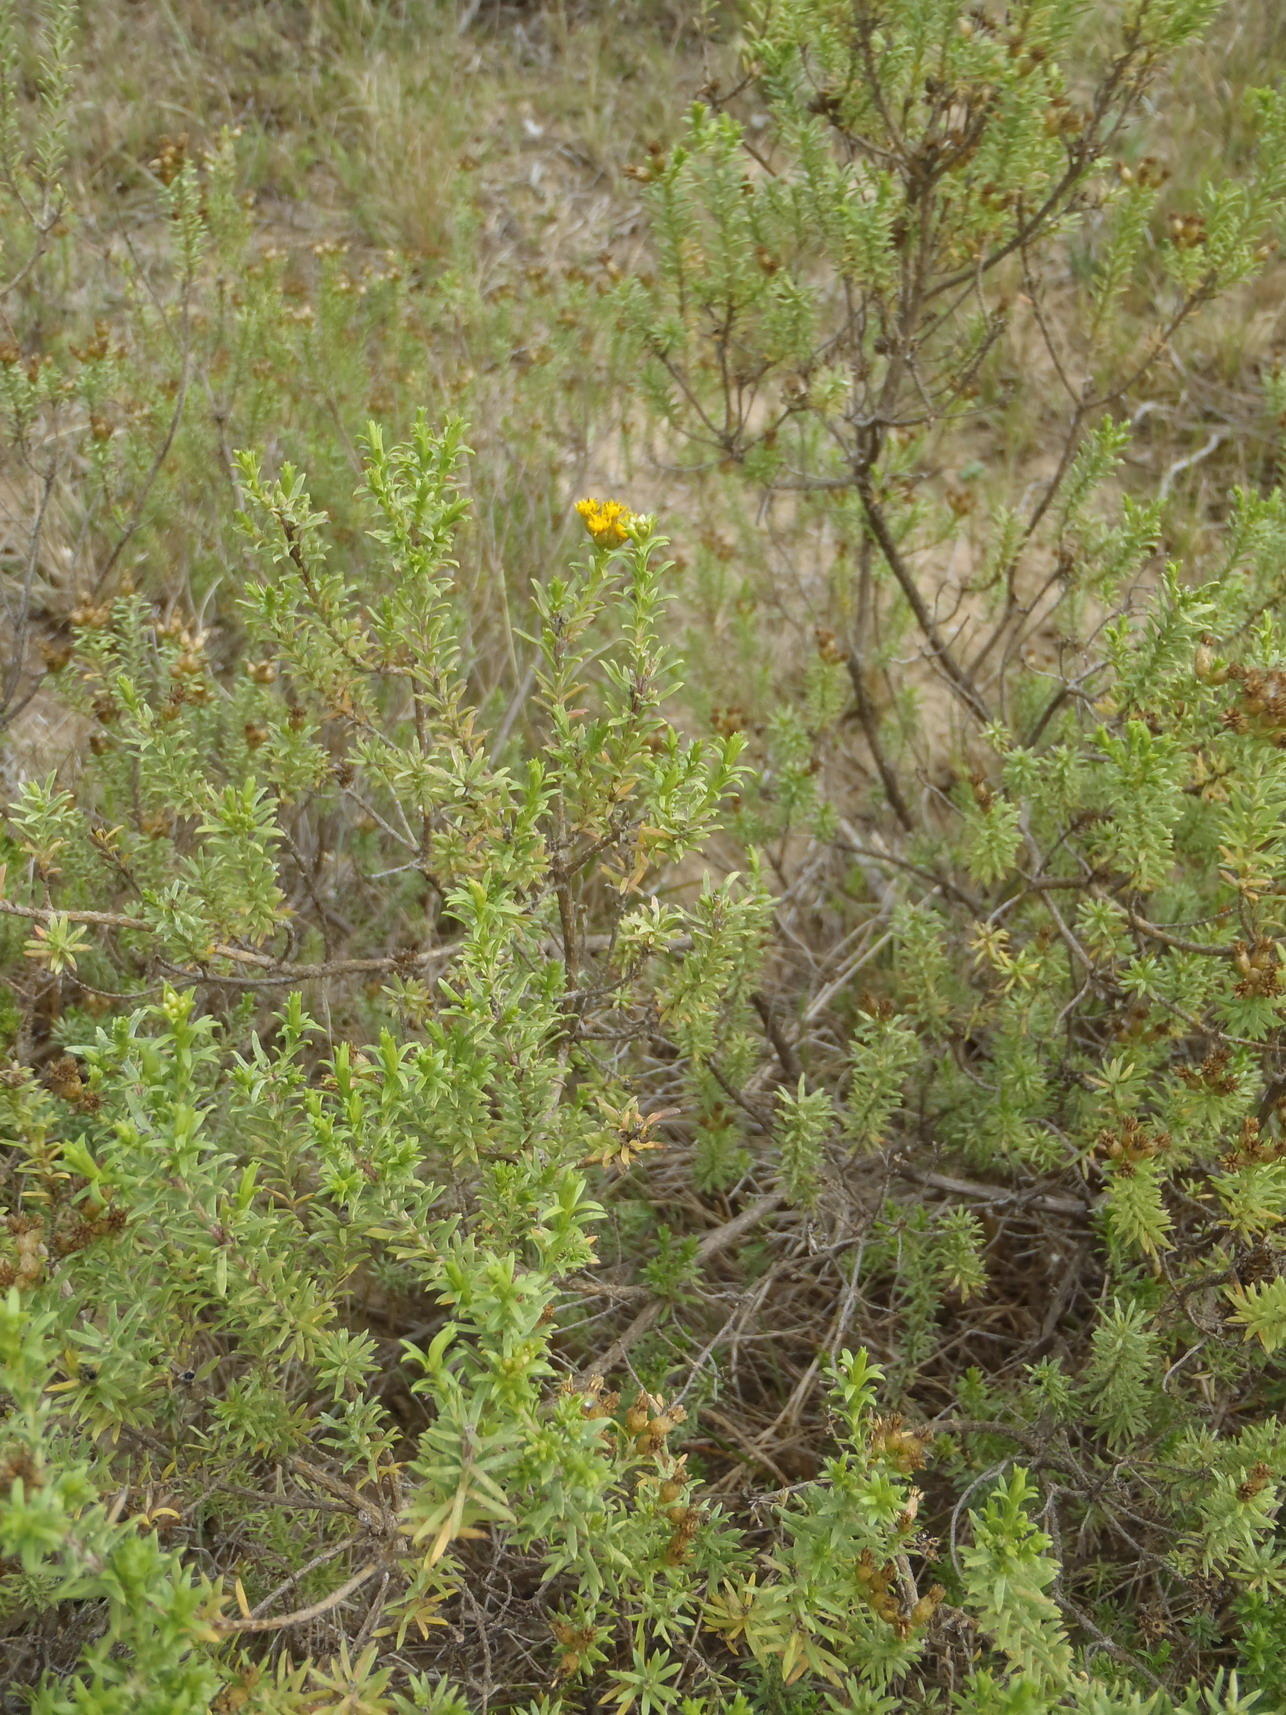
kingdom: Plantae
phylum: Tracheophyta
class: Magnoliopsida
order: Asterales
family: Asteraceae
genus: Oedera
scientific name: Oedera genistifolia
